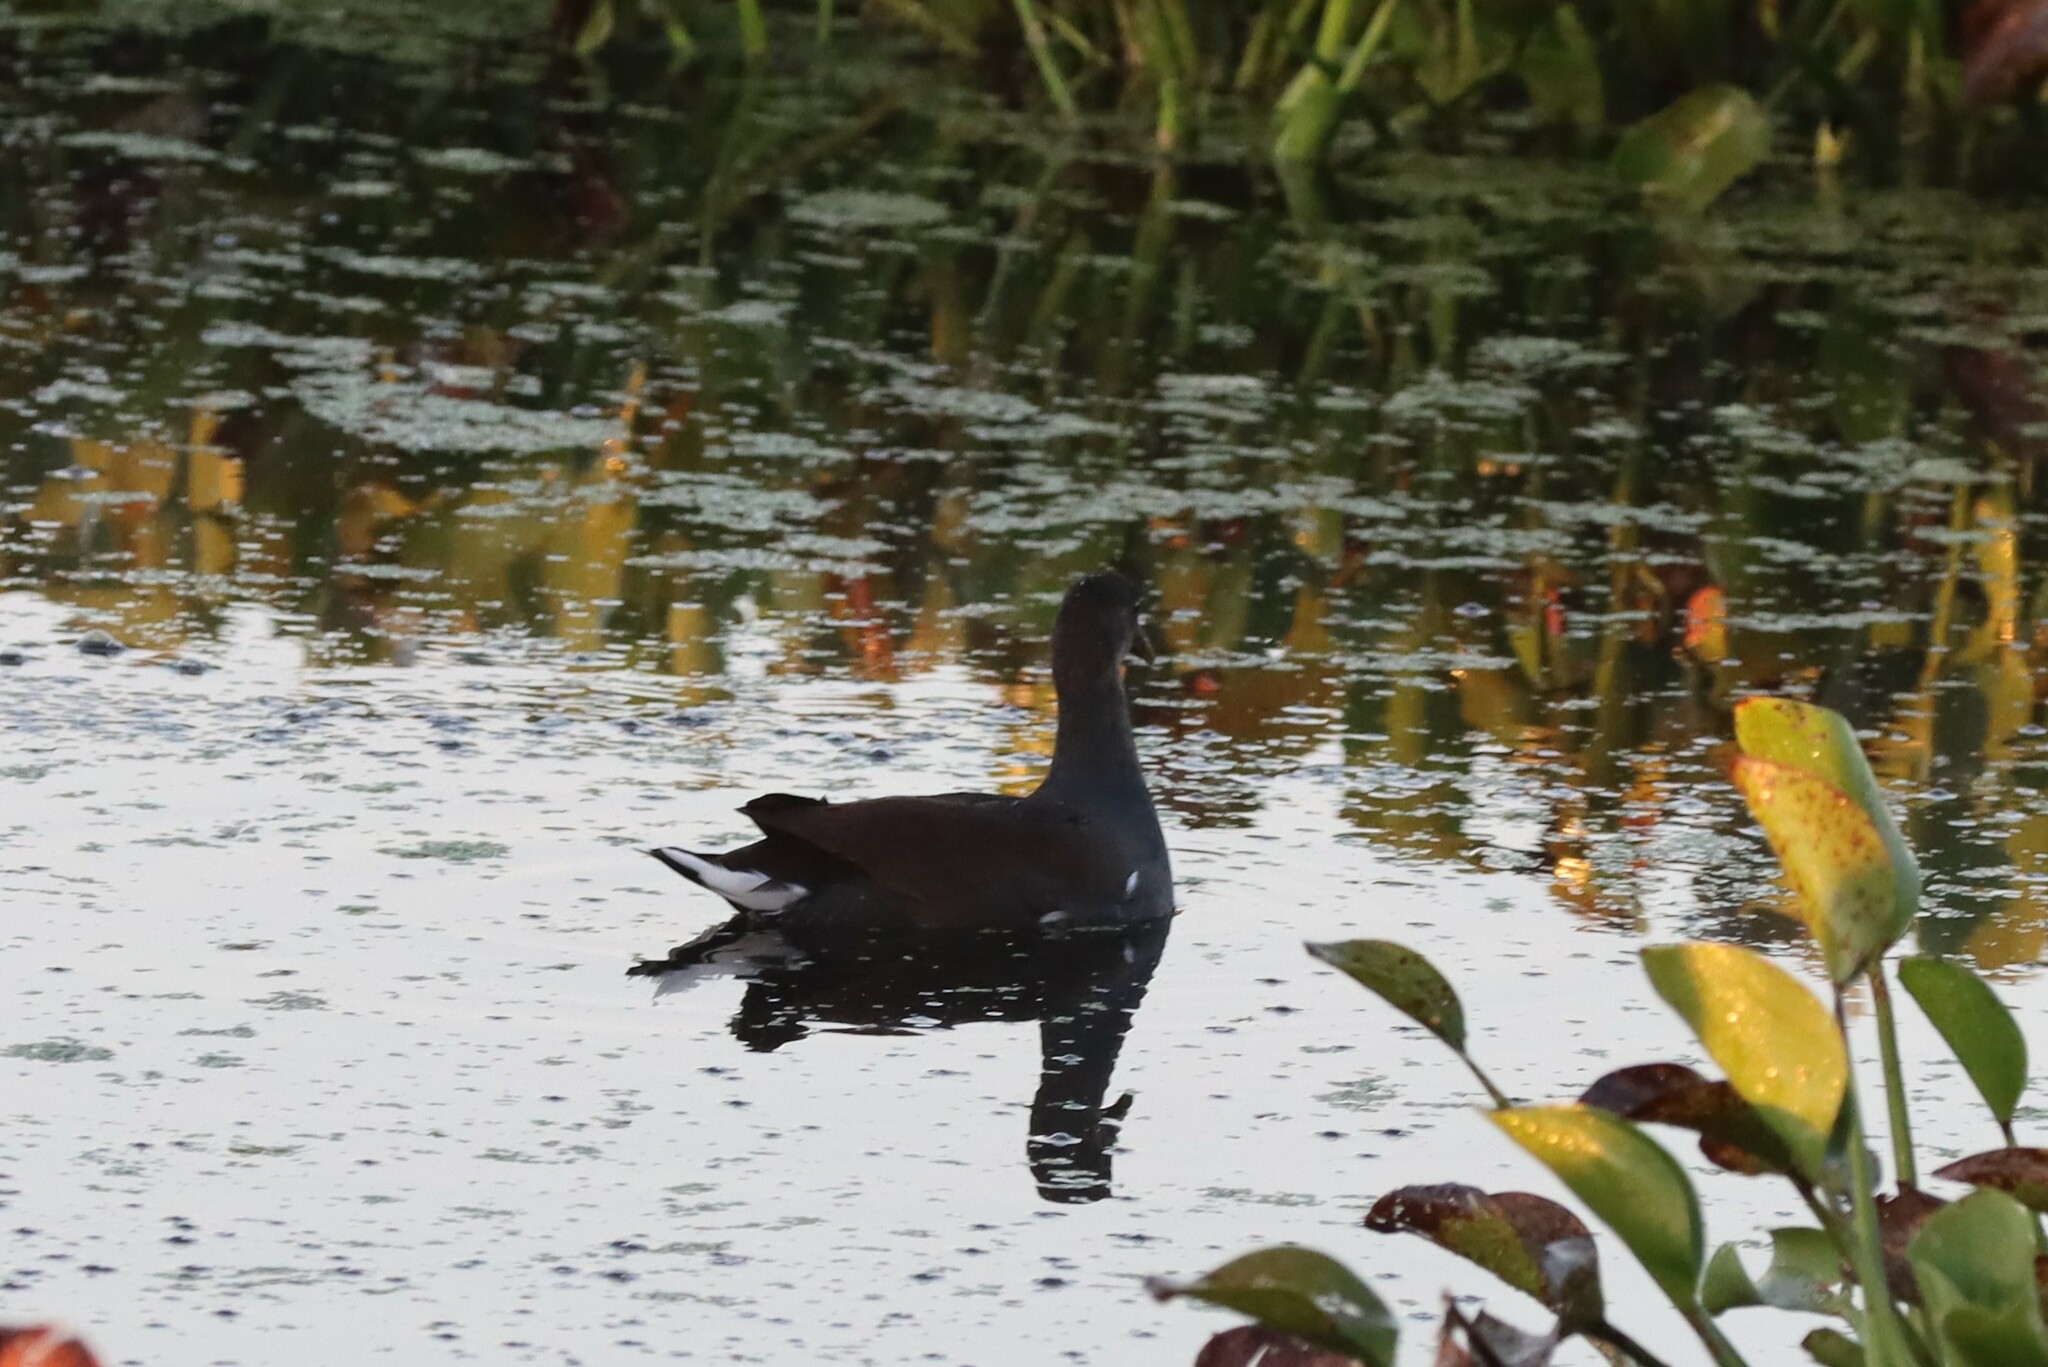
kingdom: Animalia
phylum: Chordata
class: Aves
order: Gruiformes
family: Rallidae
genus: Gallinula
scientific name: Gallinula chloropus
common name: Common moorhen
